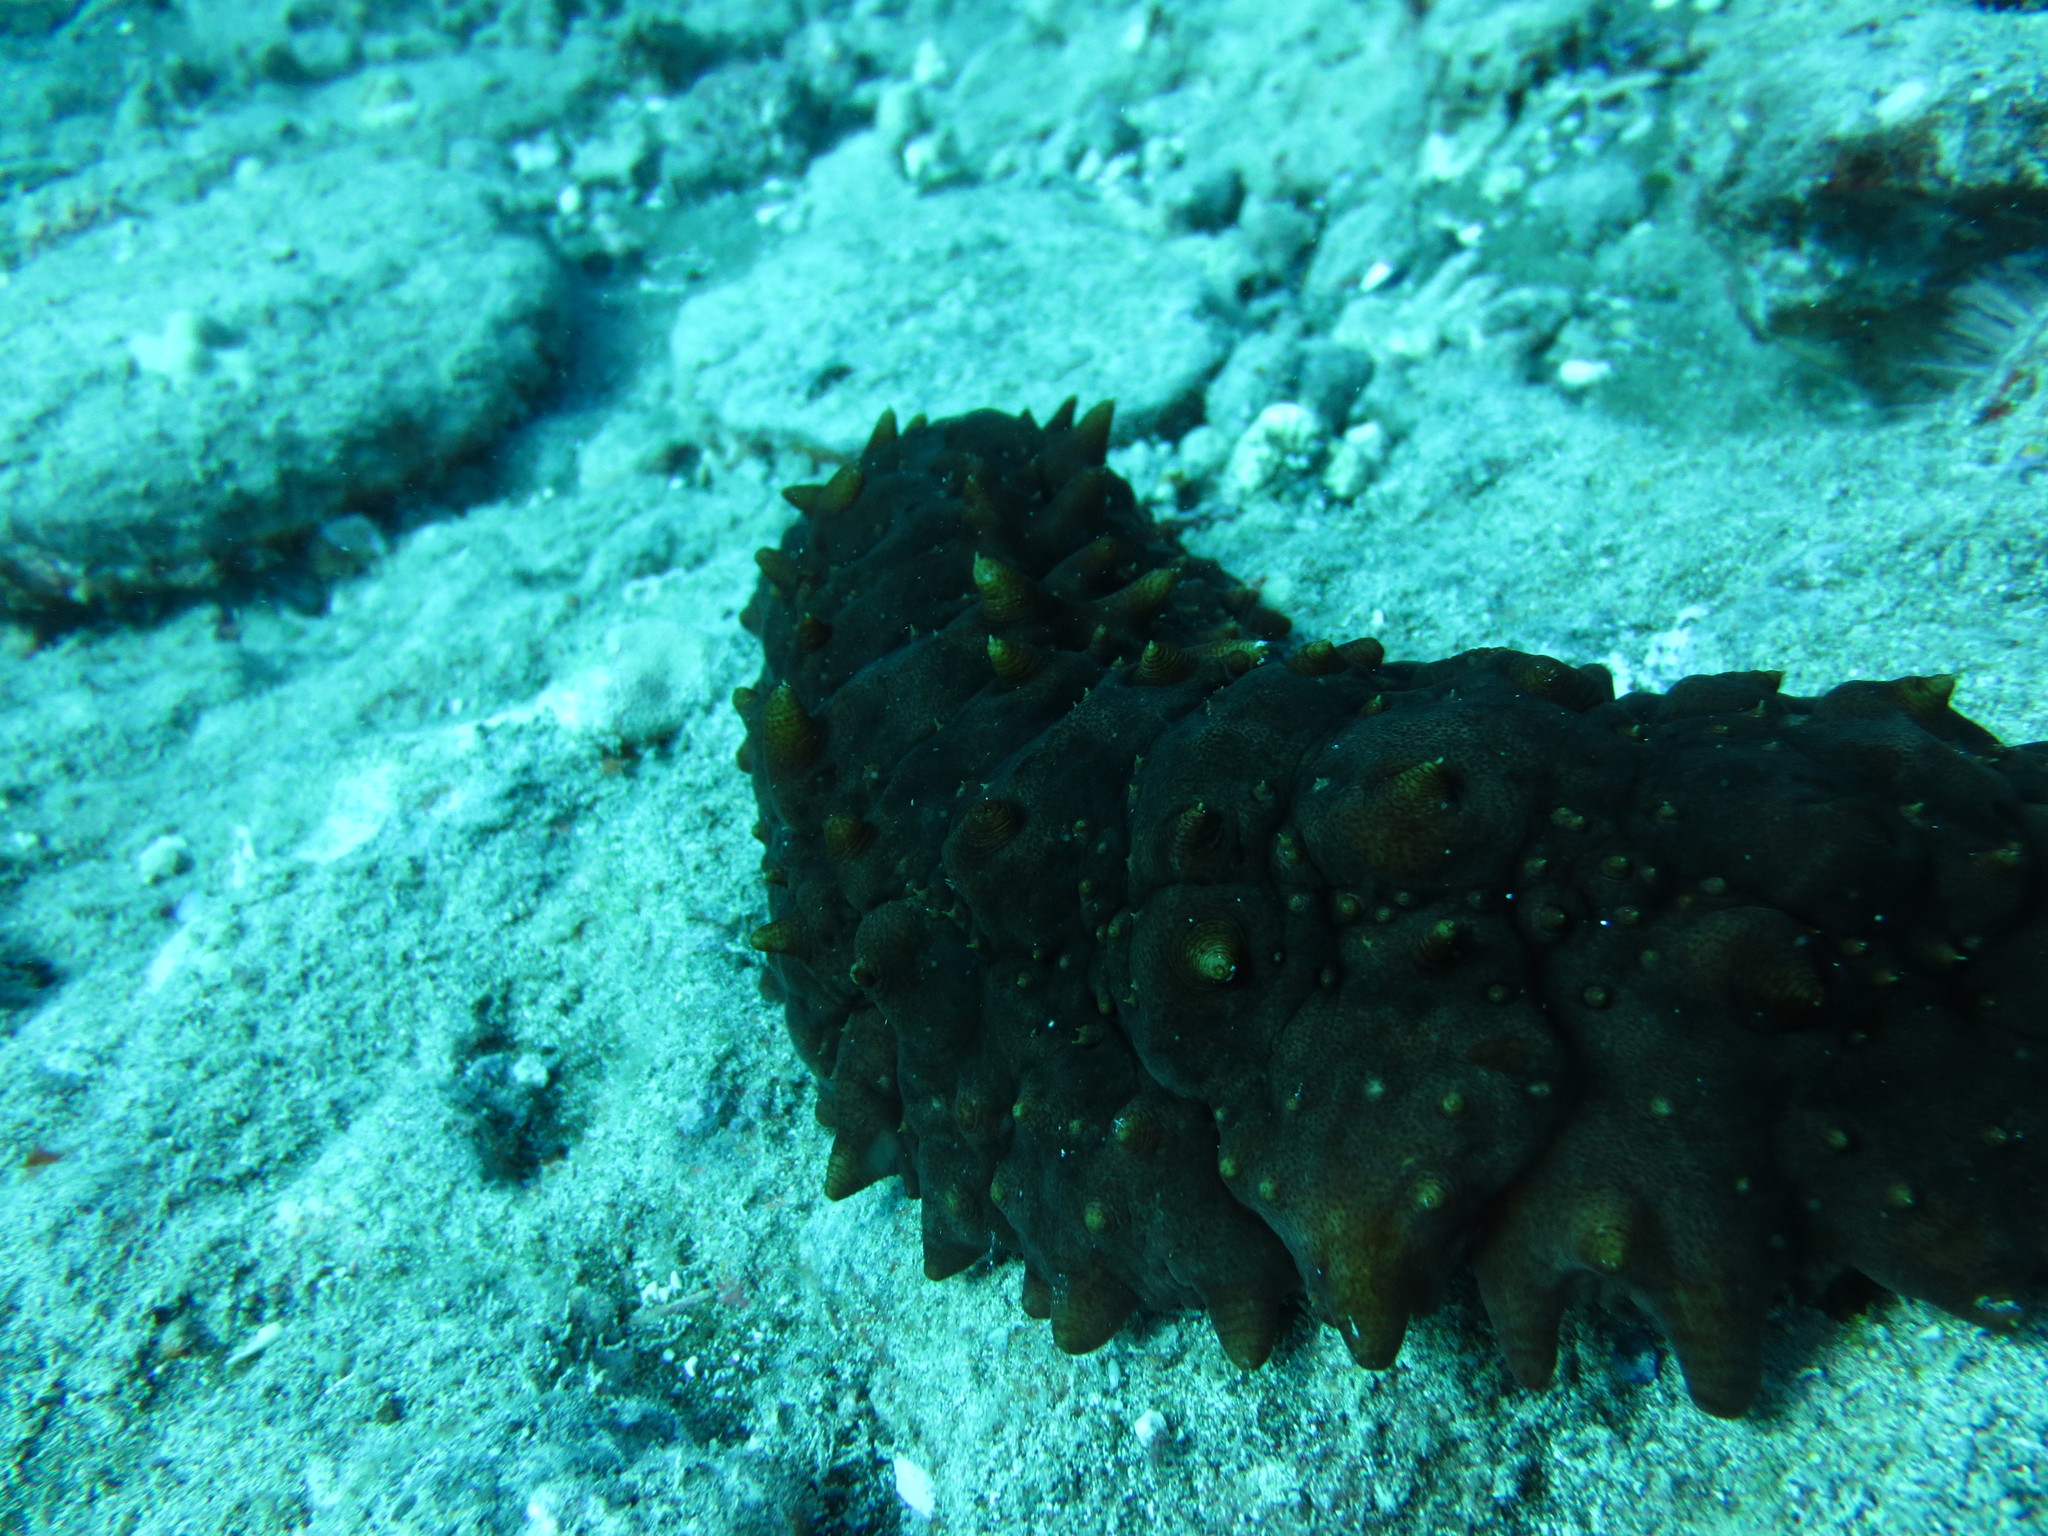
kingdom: Animalia
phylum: Echinodermata
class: Holothuroidea
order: Synallactida
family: Stichopodidae
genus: Stichopus
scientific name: Stichopus pseudohorrens
